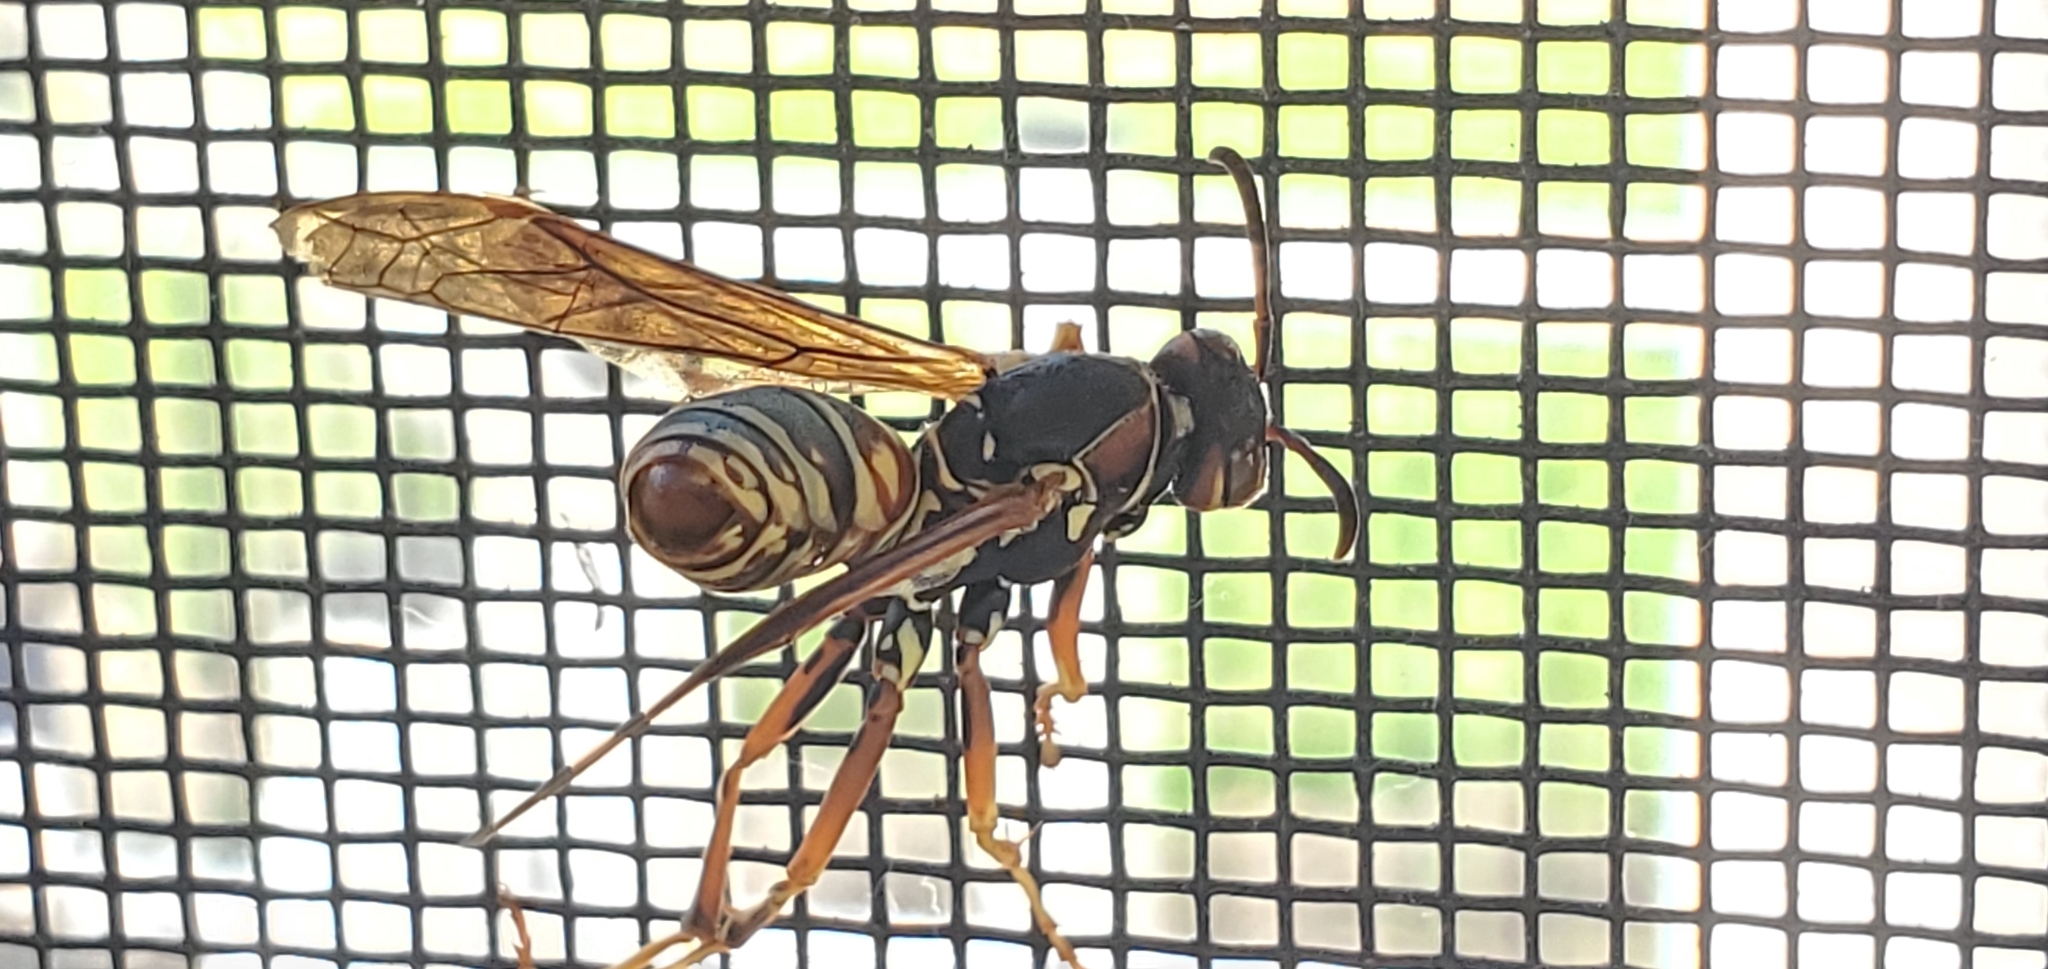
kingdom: Animalia
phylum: Arthropoda
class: Insecta
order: Hymenoptera
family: Eumenidae
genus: Polistes
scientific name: Polistes fuscatus
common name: Dark paper wasp
